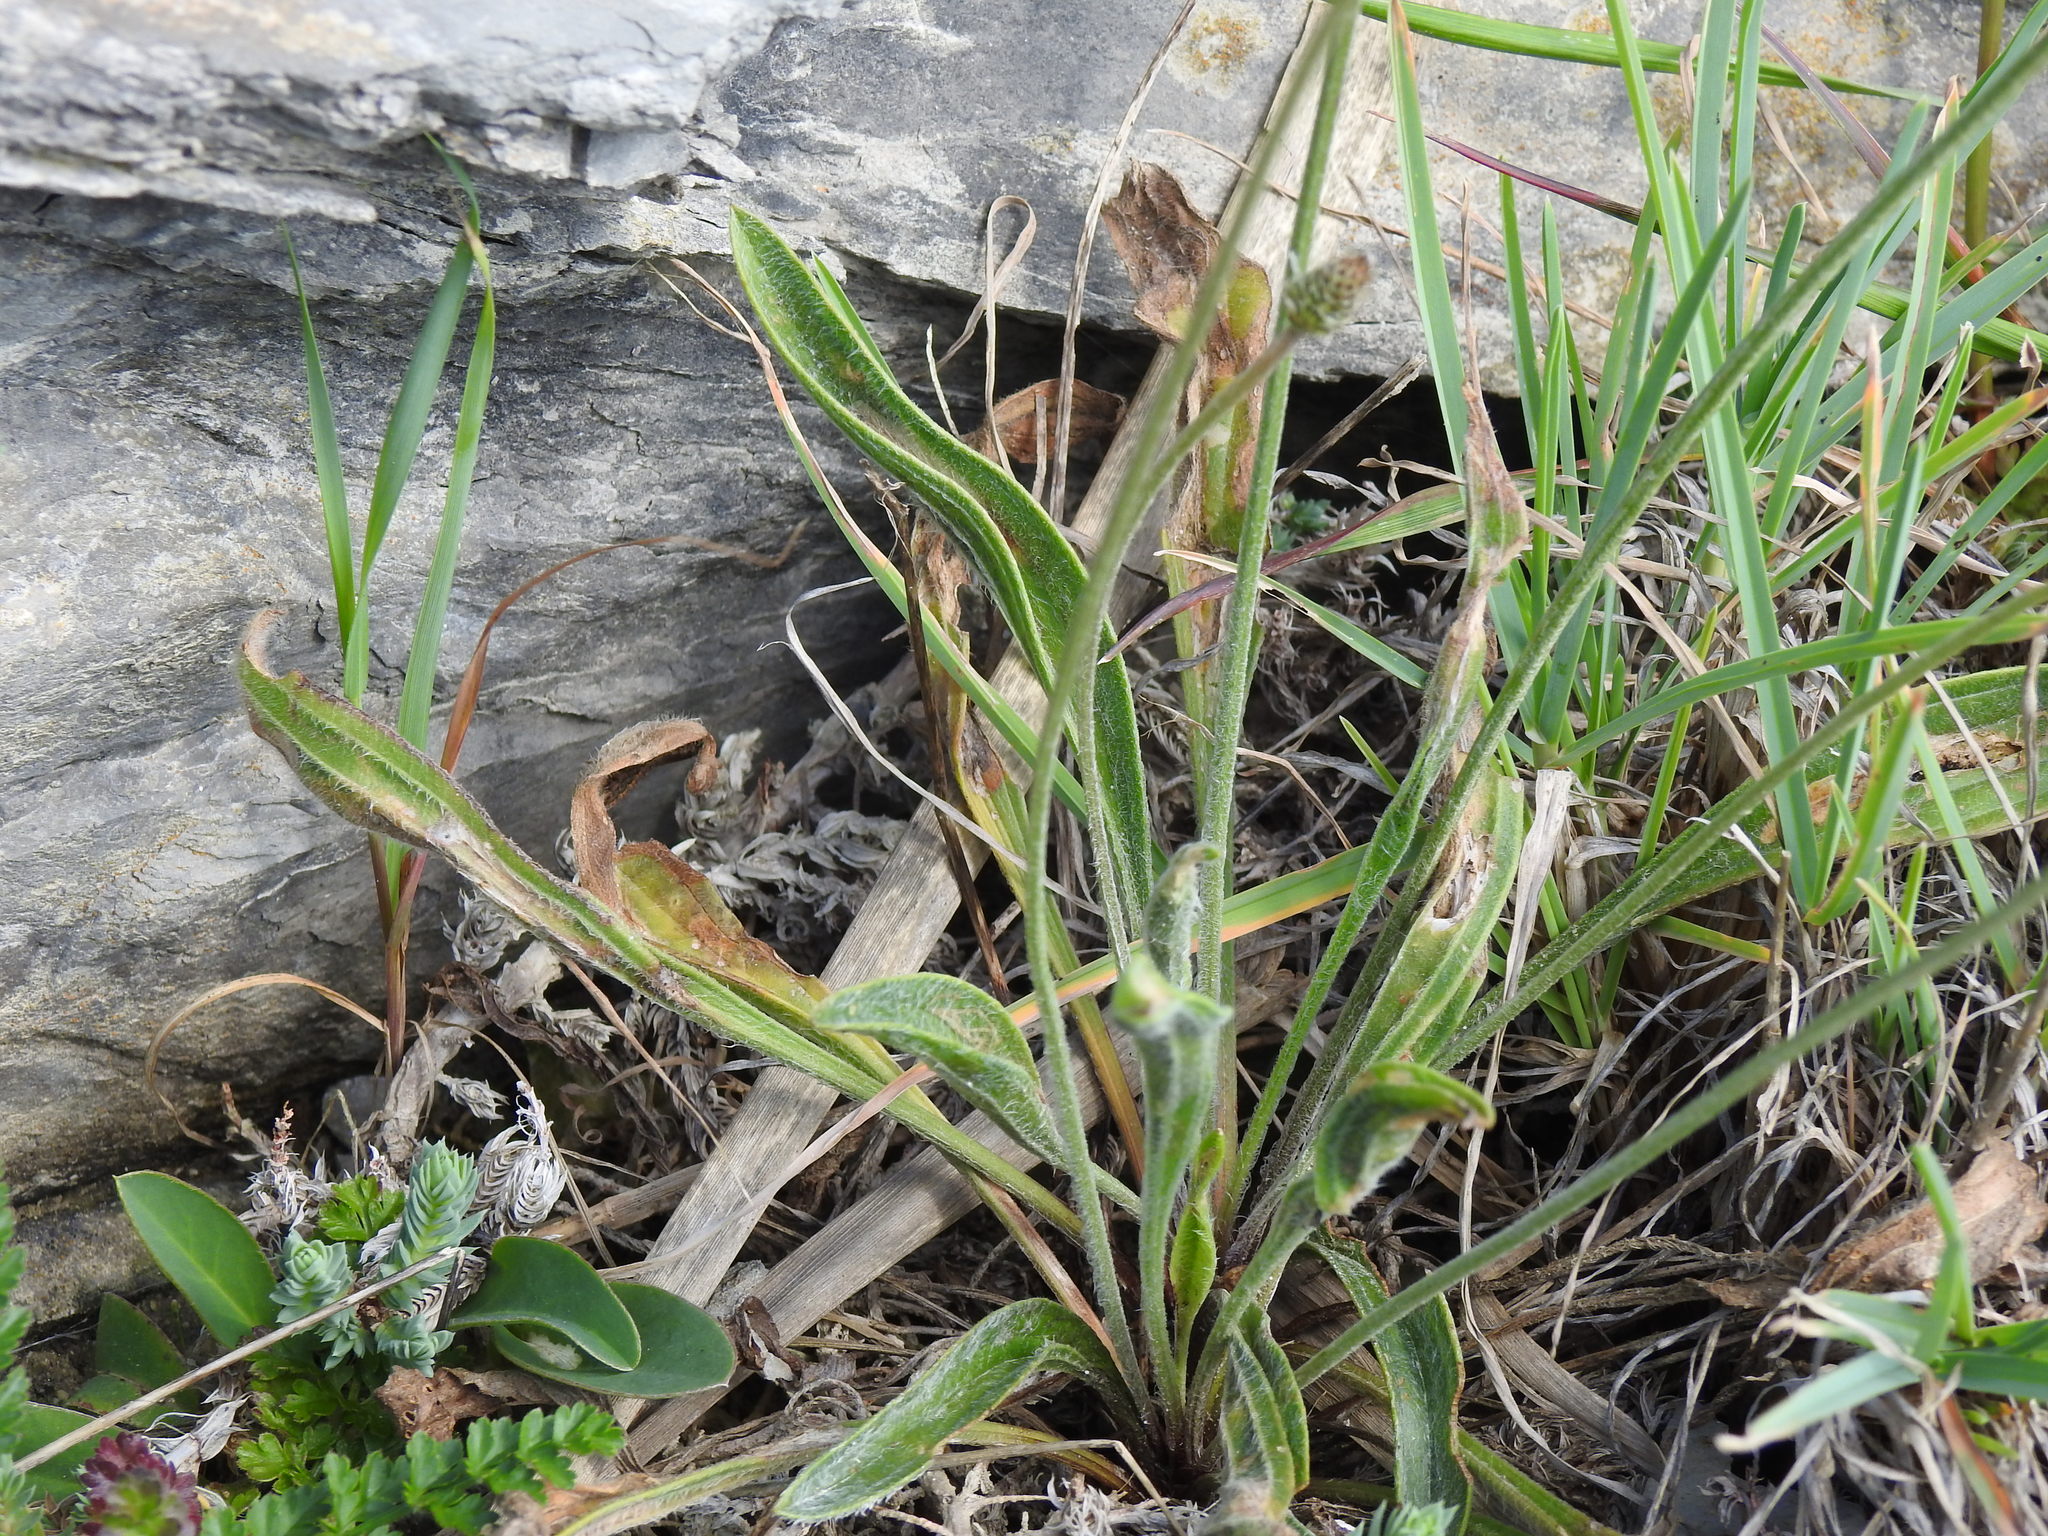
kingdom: Plantae
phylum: Tracheophyta
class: Magnoliopsida
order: Lamiales
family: Plantaginaceae
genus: Plantago
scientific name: Plantago lagopus
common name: Hare-foot plantain
